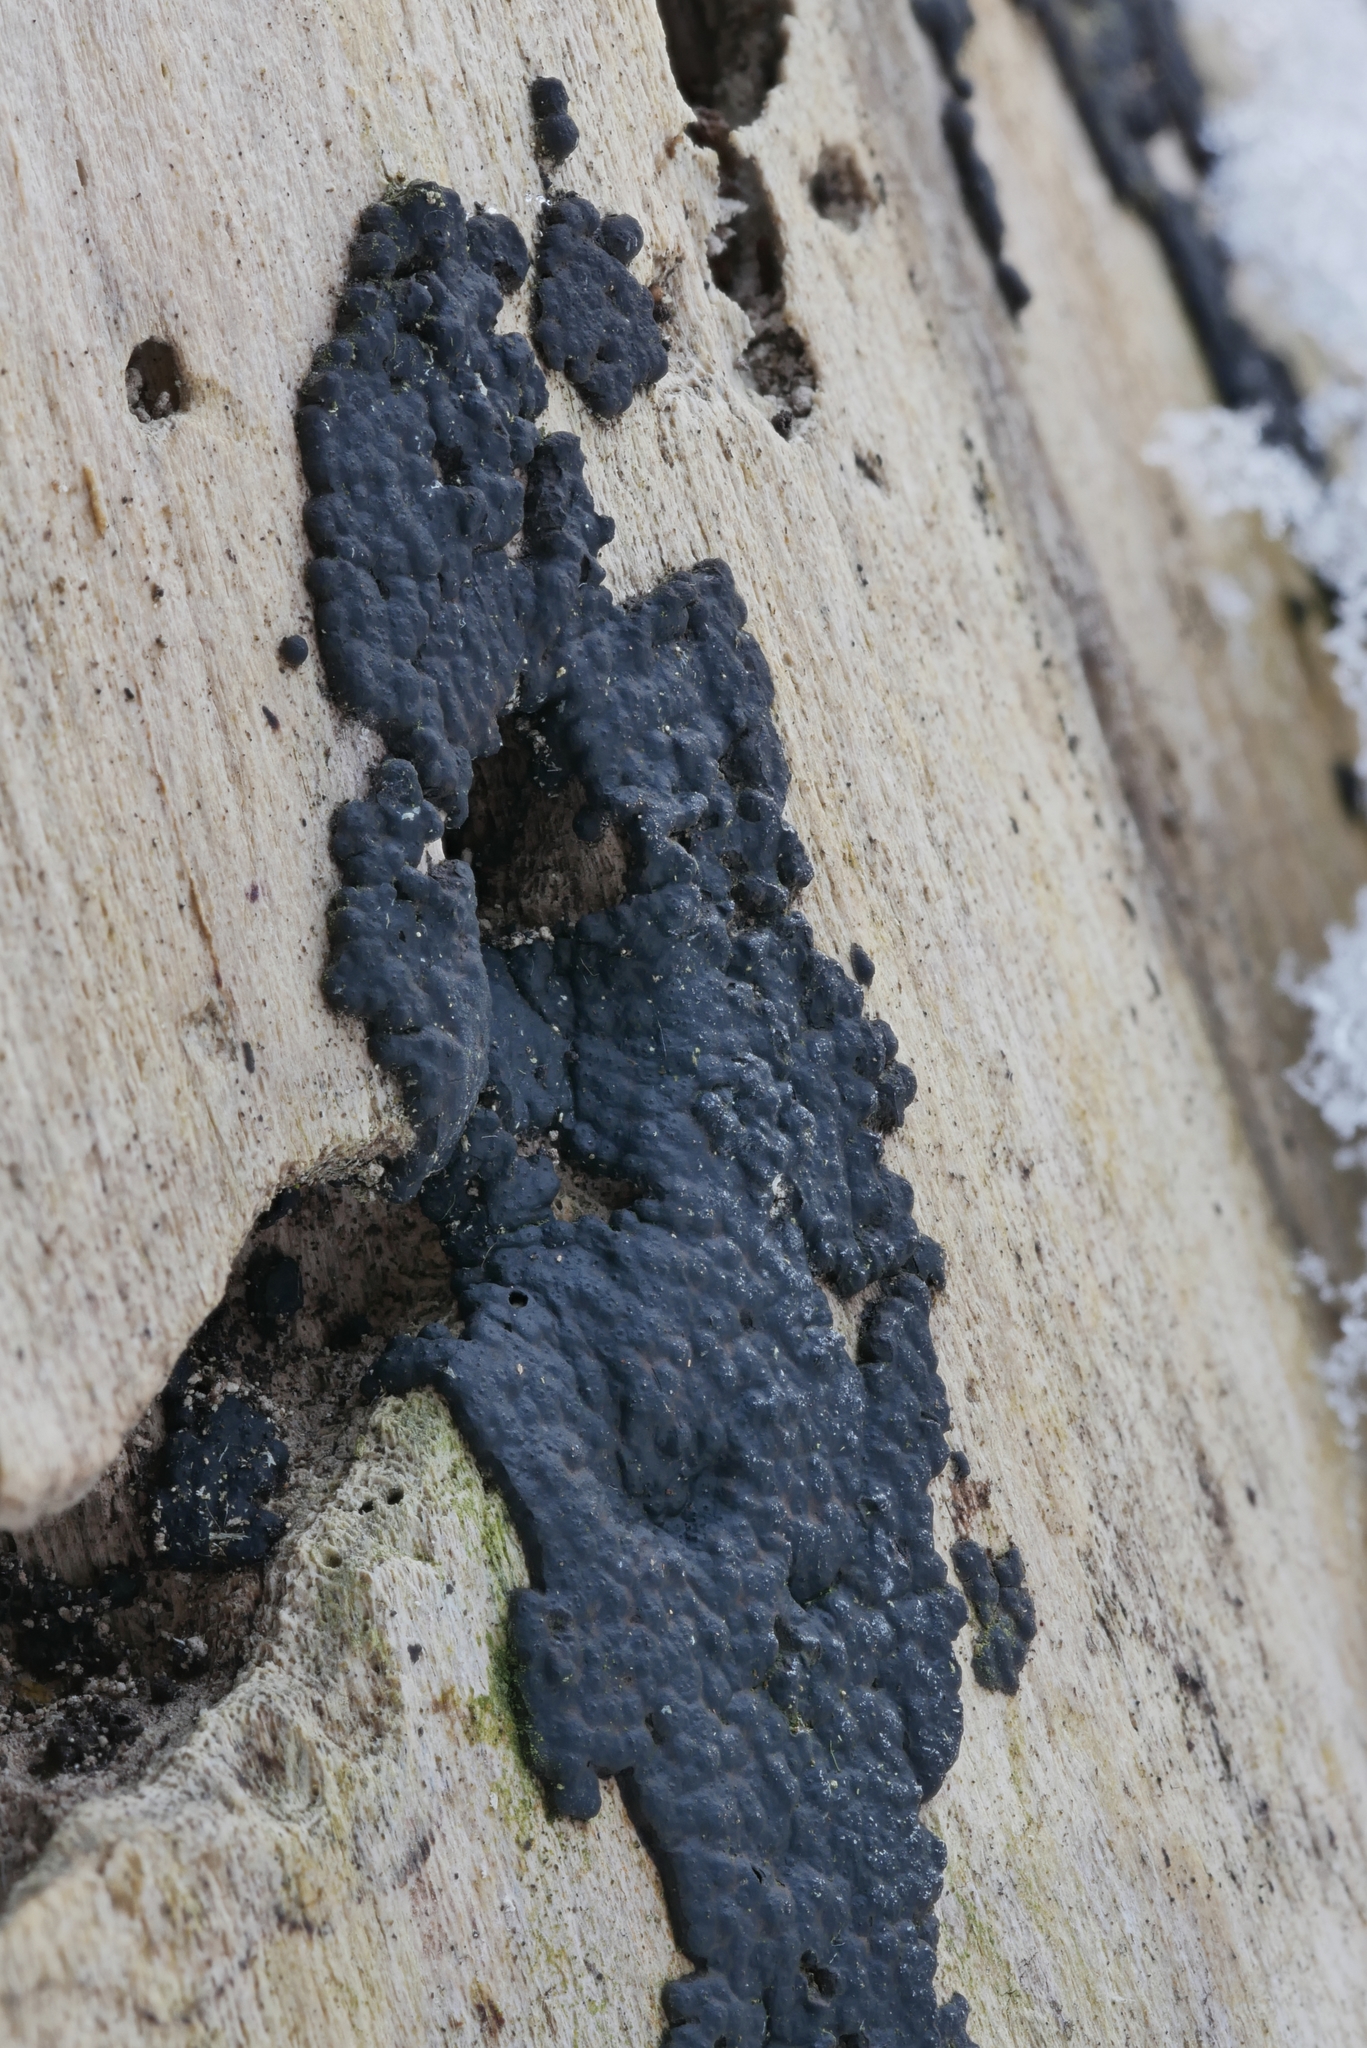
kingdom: Fungi
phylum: Ascomycota
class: Sordariomycetes
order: Xylariales
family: Xylariaceae
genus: Nemania
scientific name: Nemania diffusa
